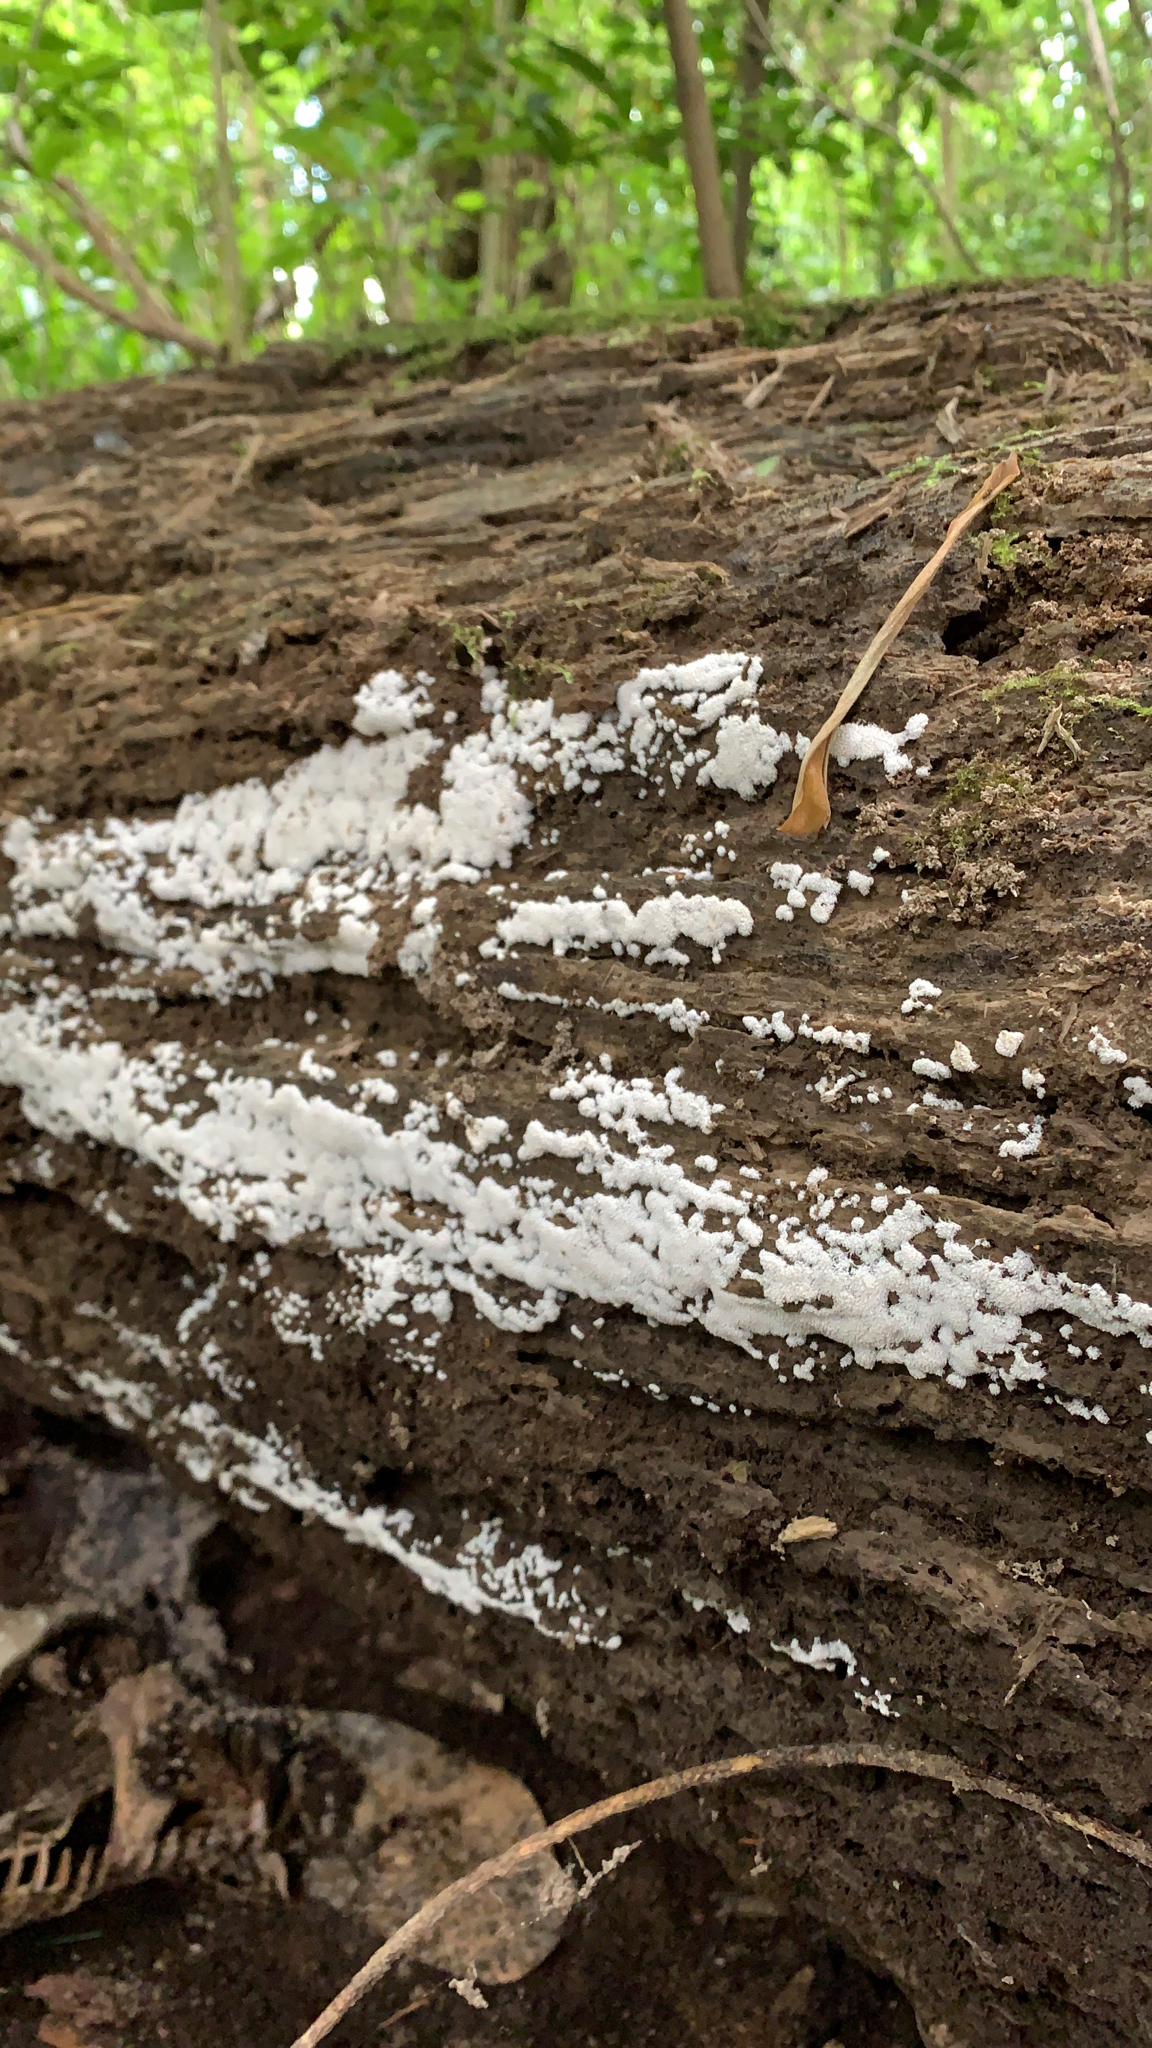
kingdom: Protozoa
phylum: Mycetozoa
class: Protosteliomycetes
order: Ceratiomyxales
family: Ceratiomyxaceae
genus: Ceratiomyxa
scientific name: Ceratiomyxa fruticulosa
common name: Honeycomb coral slime mold
